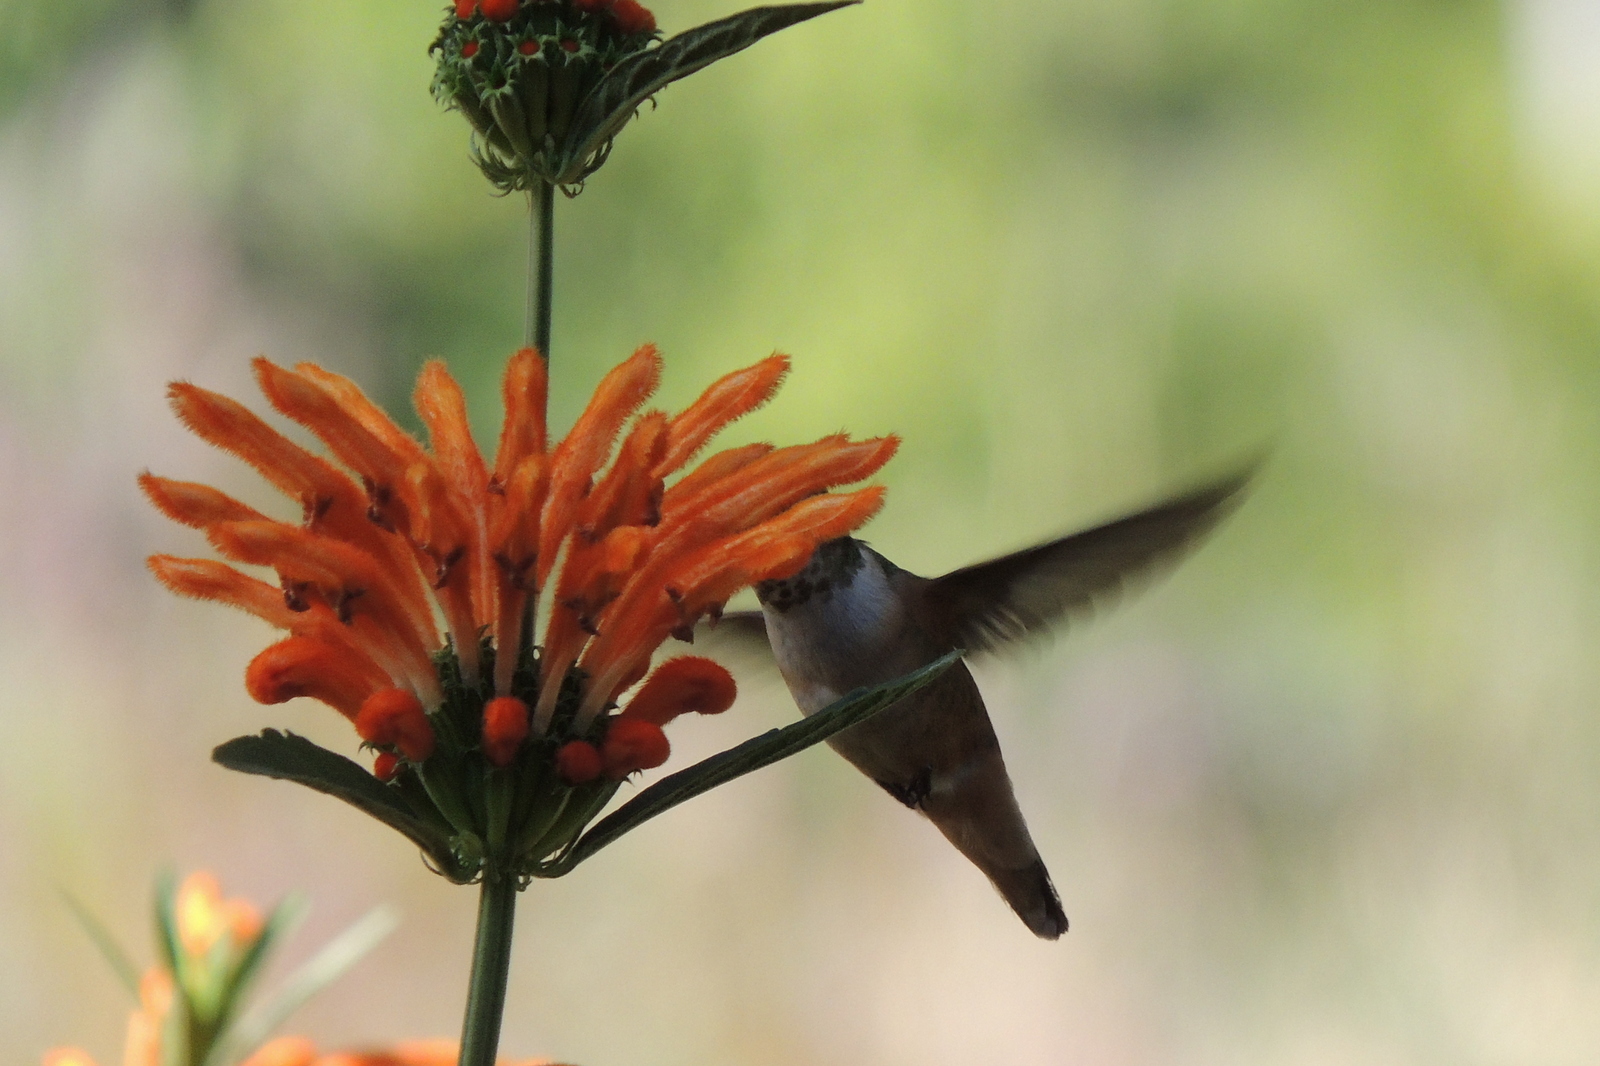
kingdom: Animalia
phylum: Chordata
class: Aves
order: Apodiformes
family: Trochilidae
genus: Selasphorus
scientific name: Selasphorus
